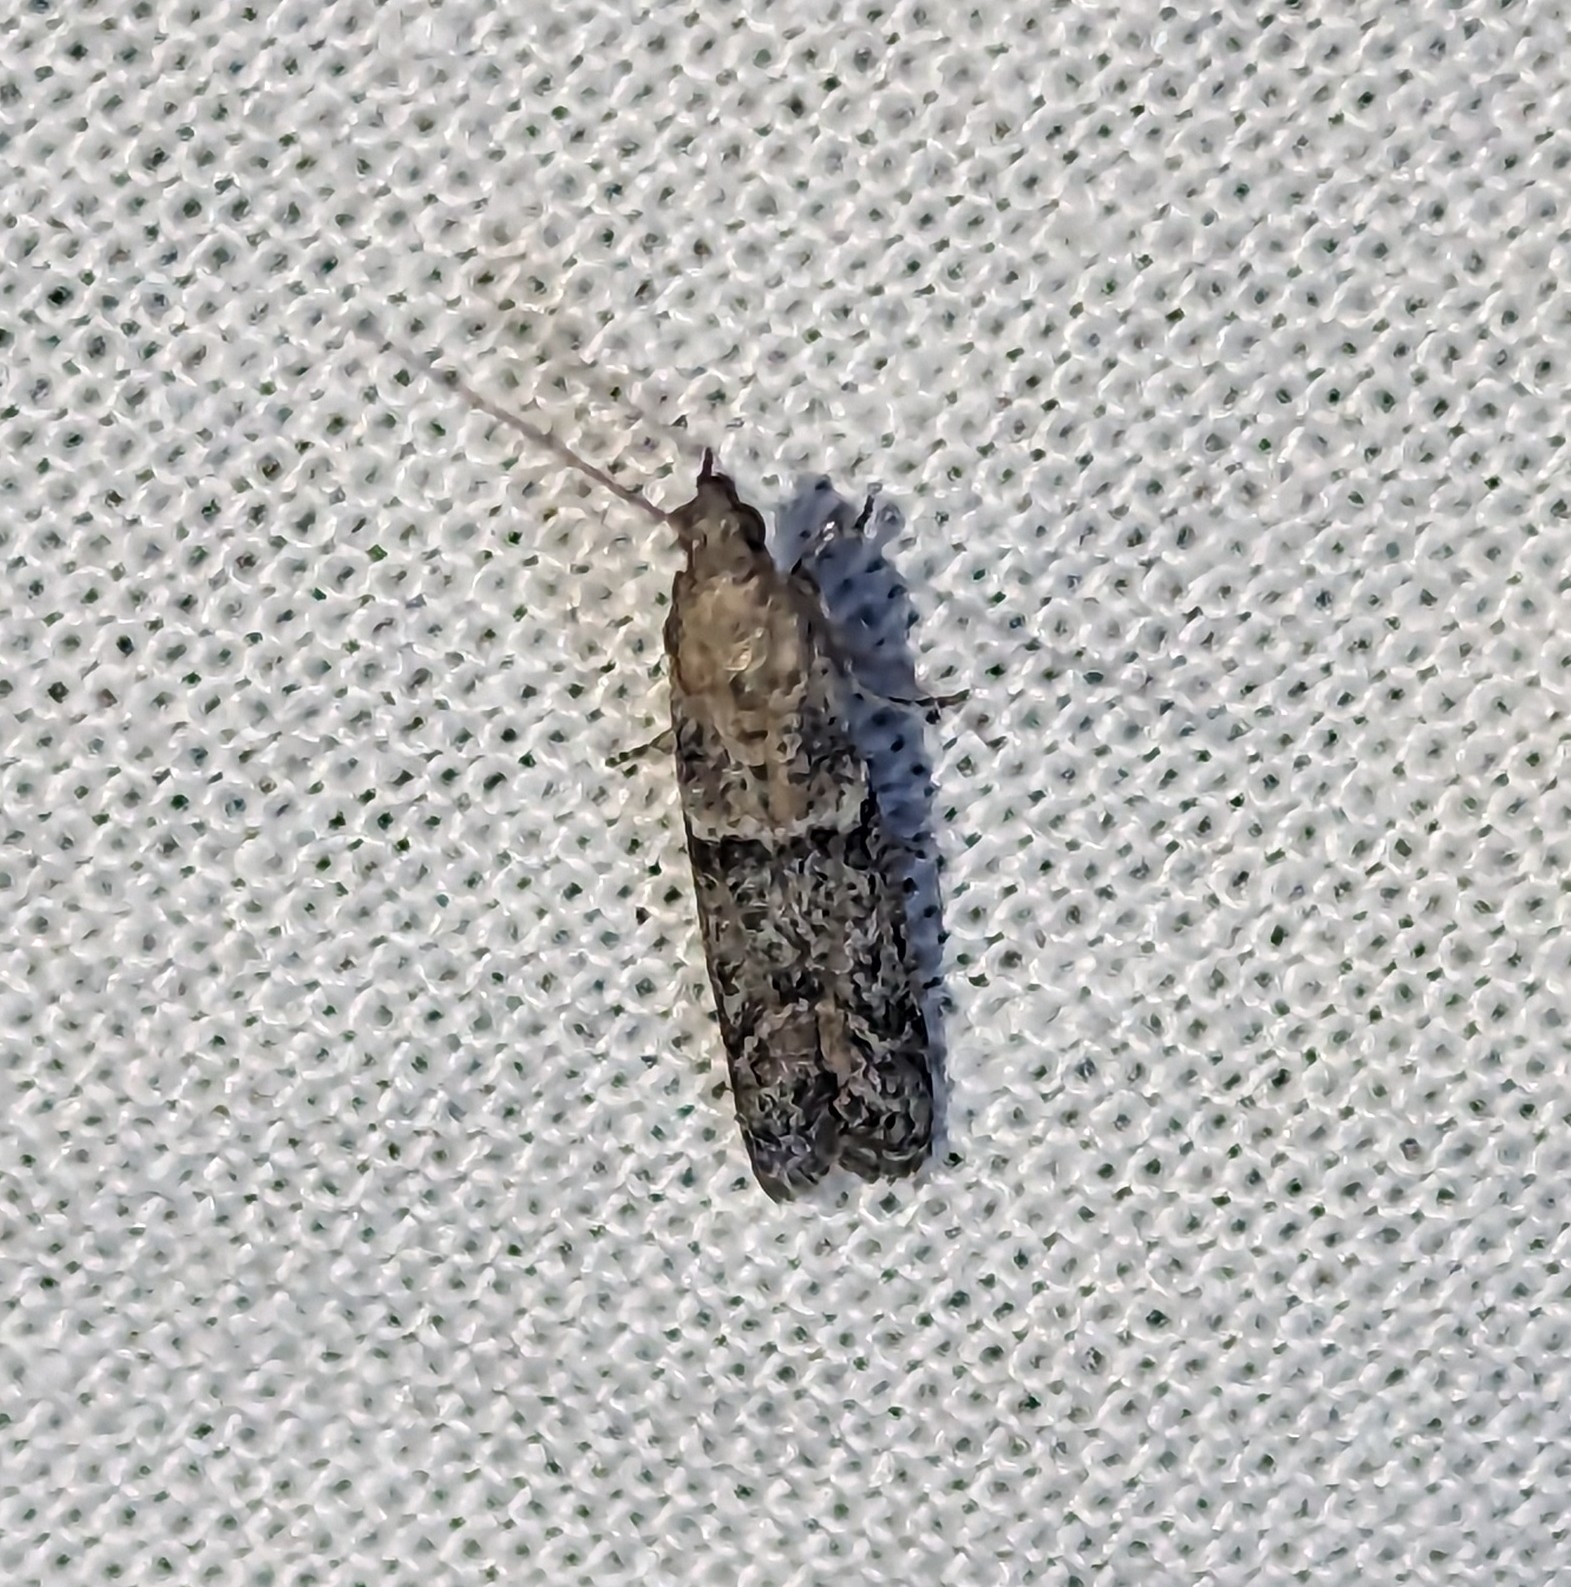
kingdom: Animalia
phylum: Arthropoda
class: Insecta
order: Lepidoptera
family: Pyralidae
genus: Ephestiodes
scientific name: Ephestiodes gilvescentella
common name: Moth
